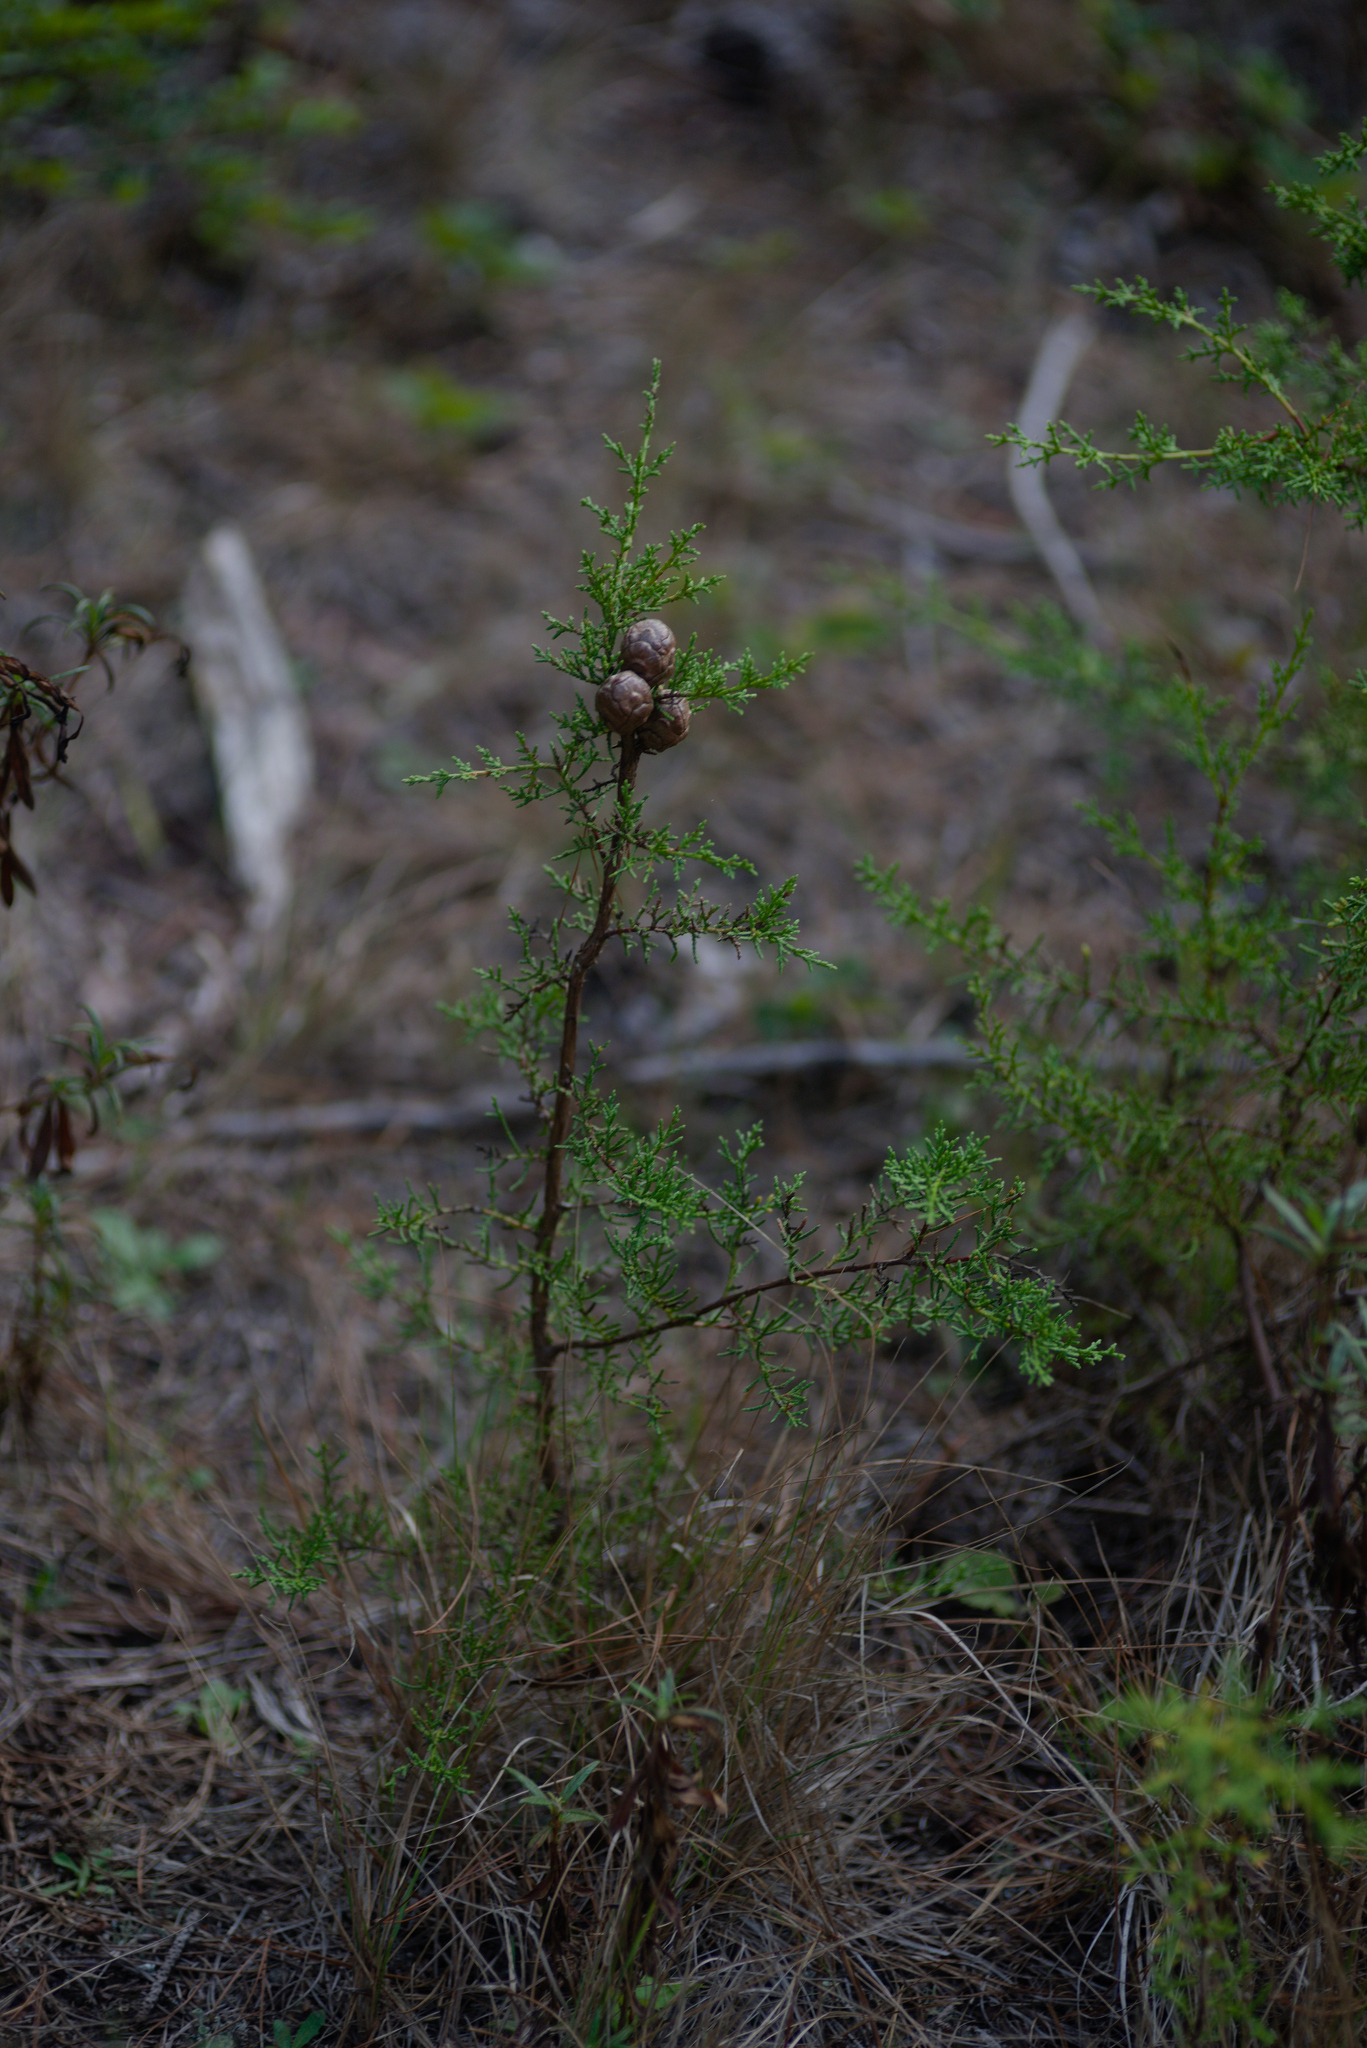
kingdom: Plantae
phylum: Tracheophyta
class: Pinopsida
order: Pinales
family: Cupressaceae
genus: Cupressus
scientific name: Cupressus goveniana
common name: Gowen cypress
